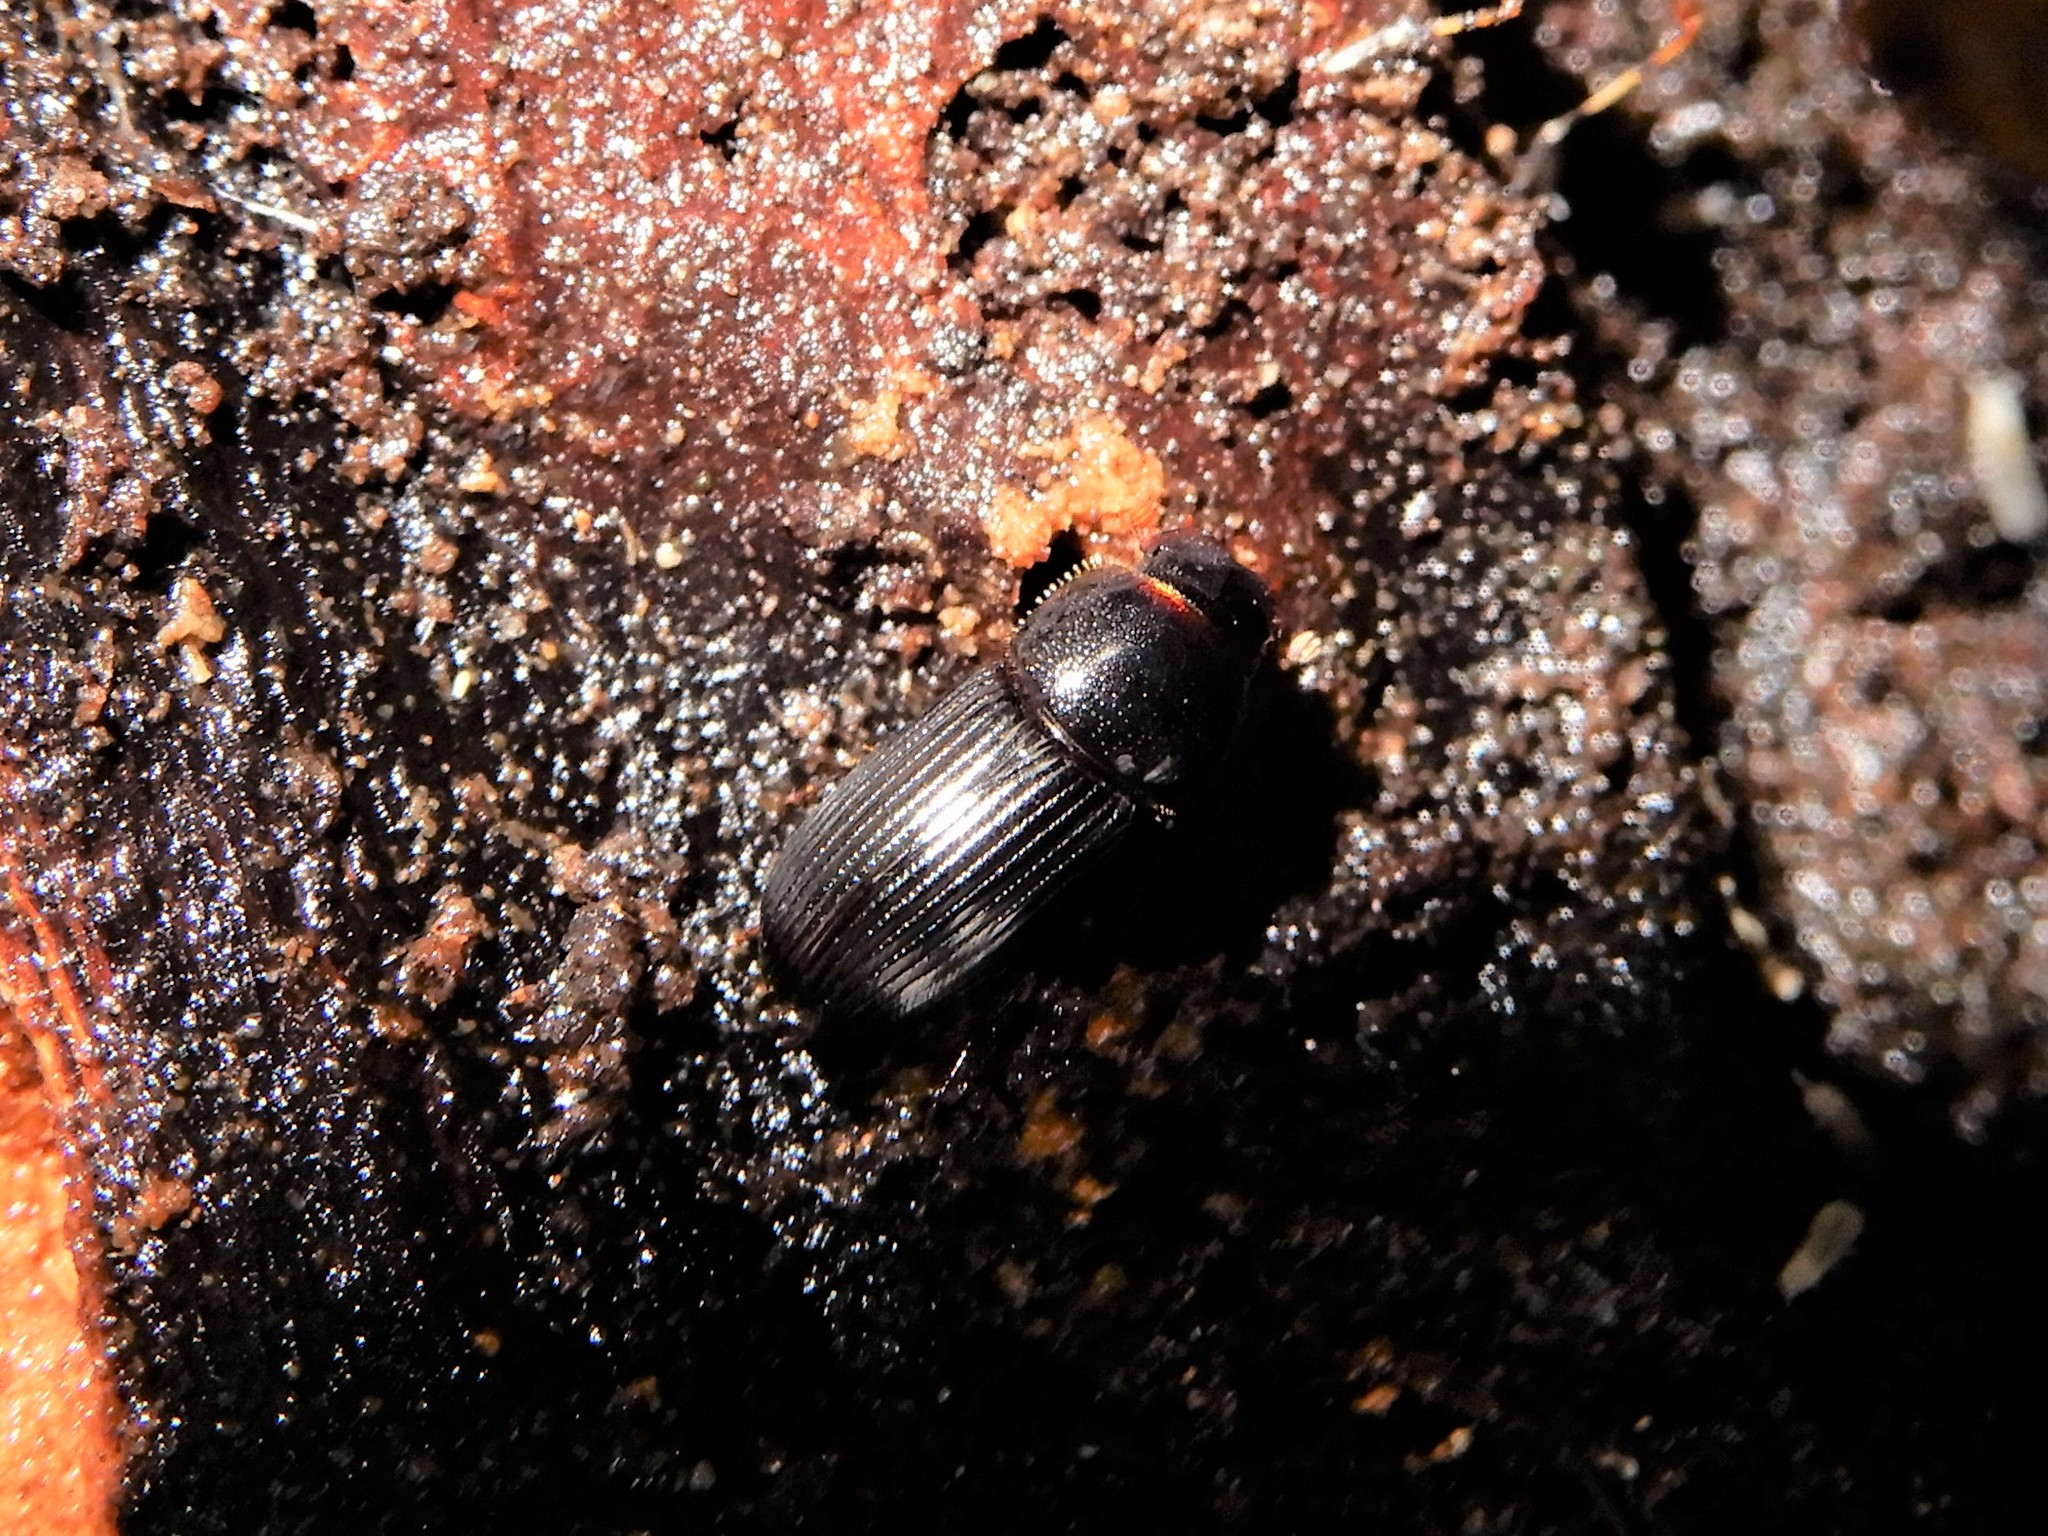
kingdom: Animalia
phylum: Arthropoda
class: Insecta
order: Coleoptera
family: Scarabaeidae
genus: Ataenius
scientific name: Ataenius picinus
